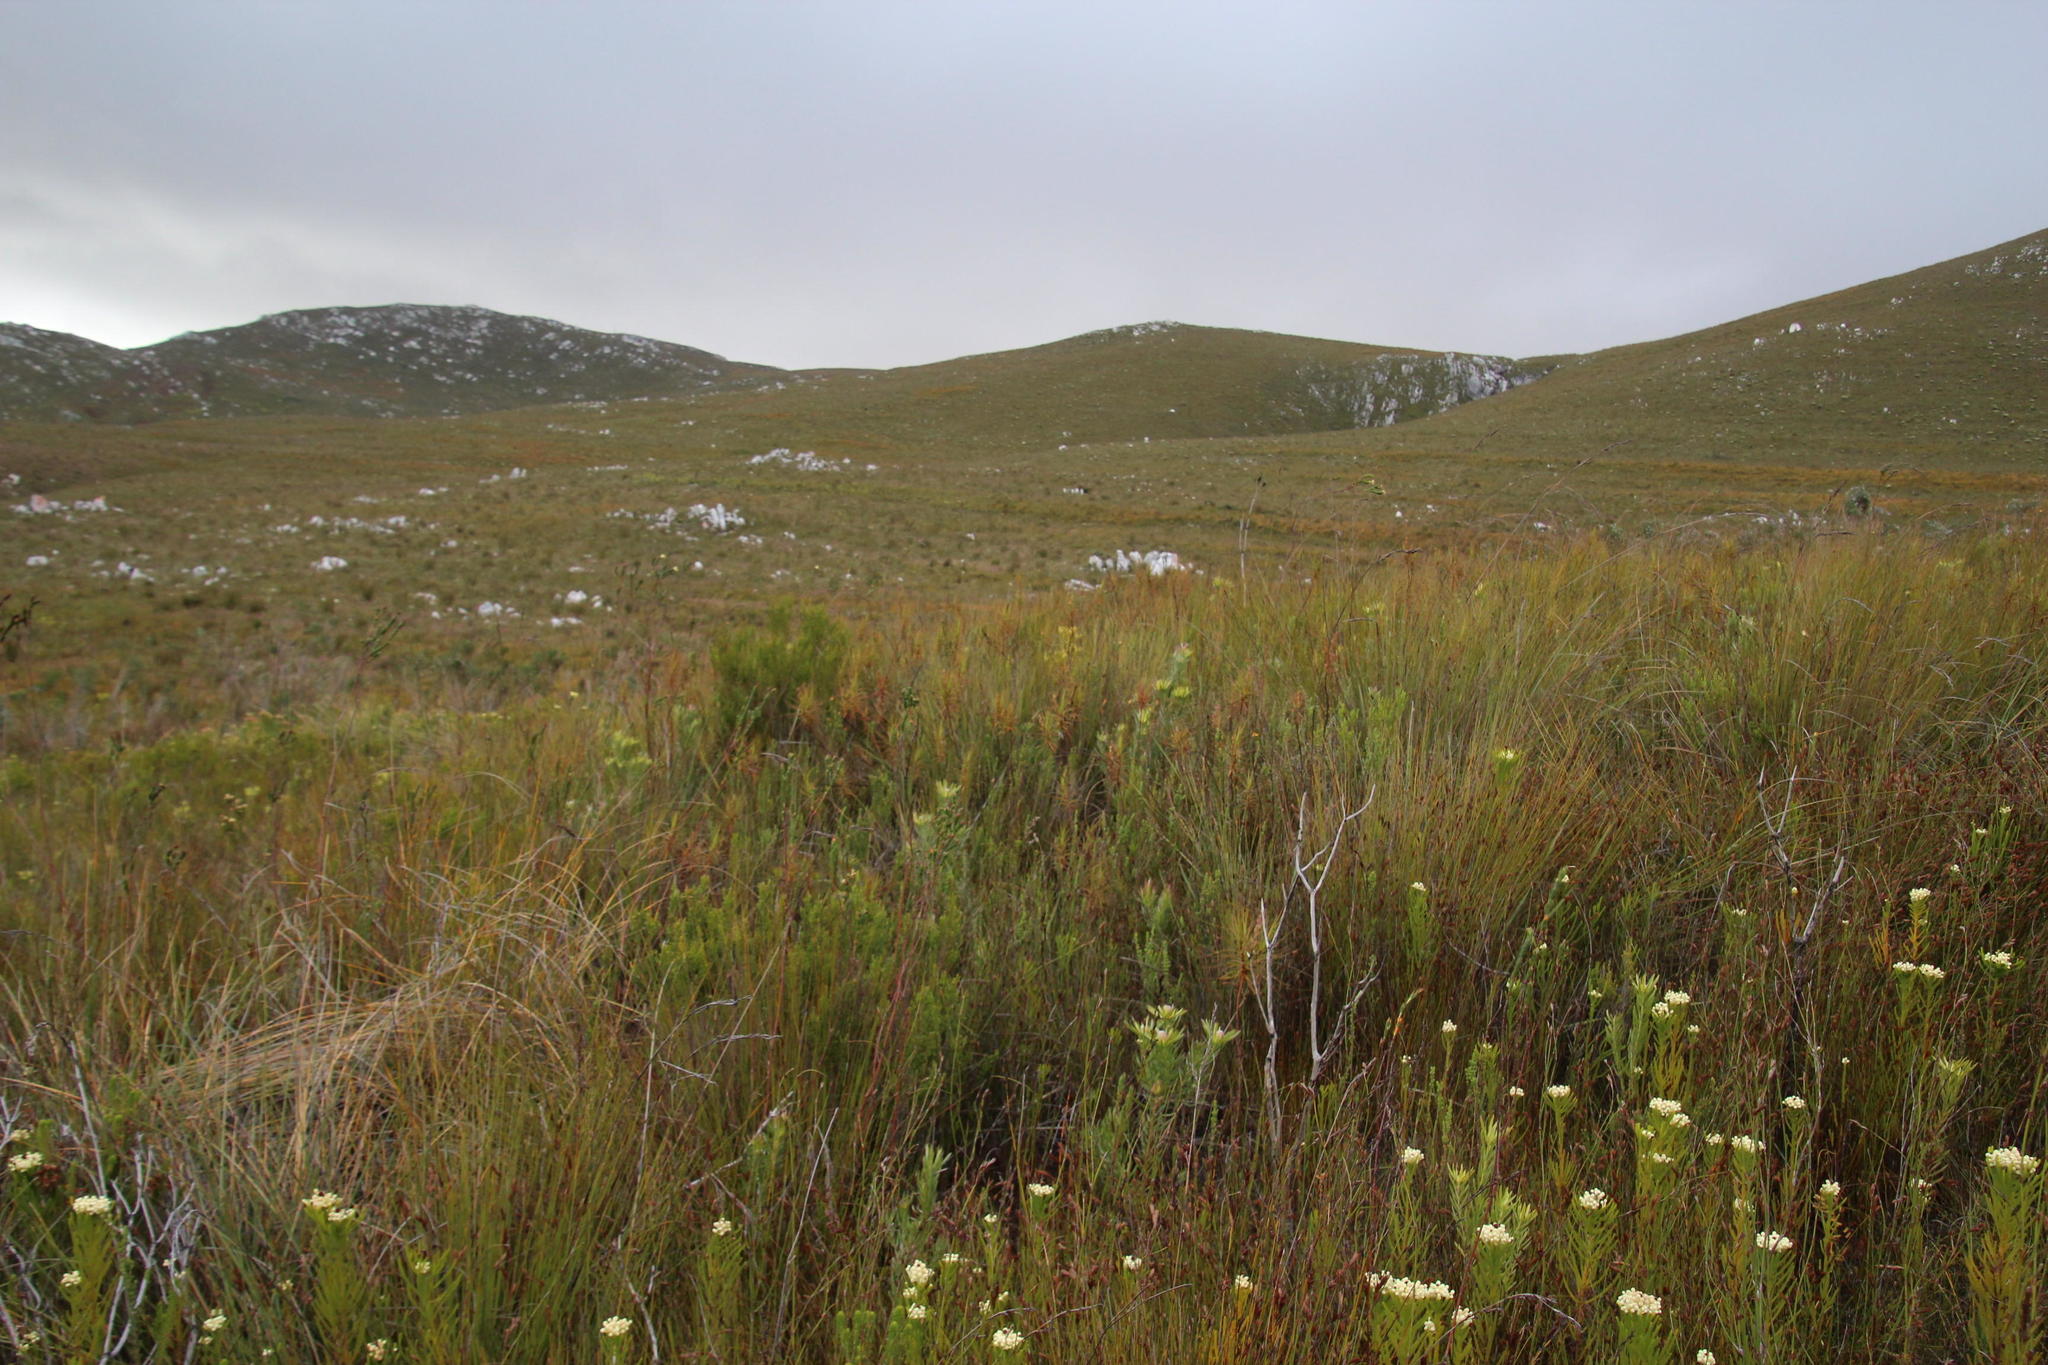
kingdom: Plantae
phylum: Tracheophyta
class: Magnoliopsida
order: Ericales
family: Roridulaceae
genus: Roridula
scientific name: Roridula gorgonias
